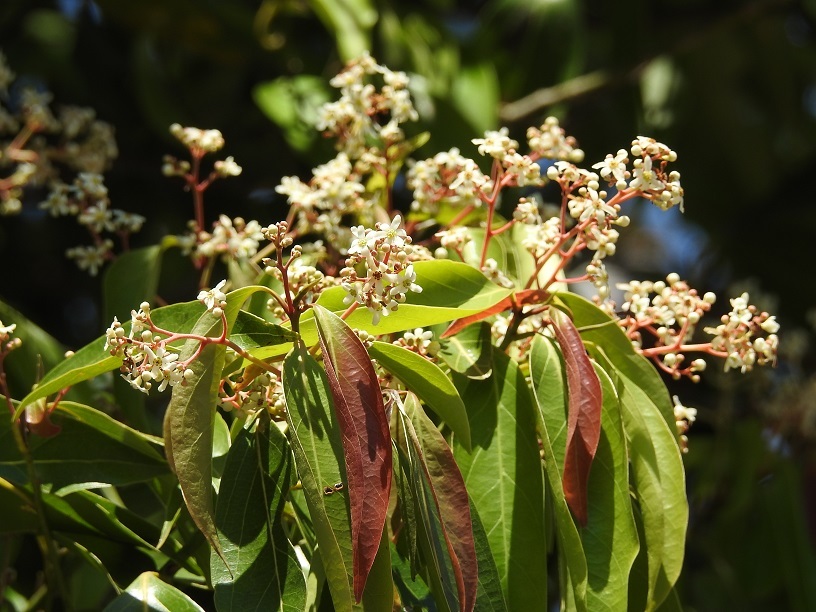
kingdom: Plantae
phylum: Tracheophyta
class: Magnoliopsida
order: Laurales
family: Lauraceae
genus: Damburneya
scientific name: Damburneya
